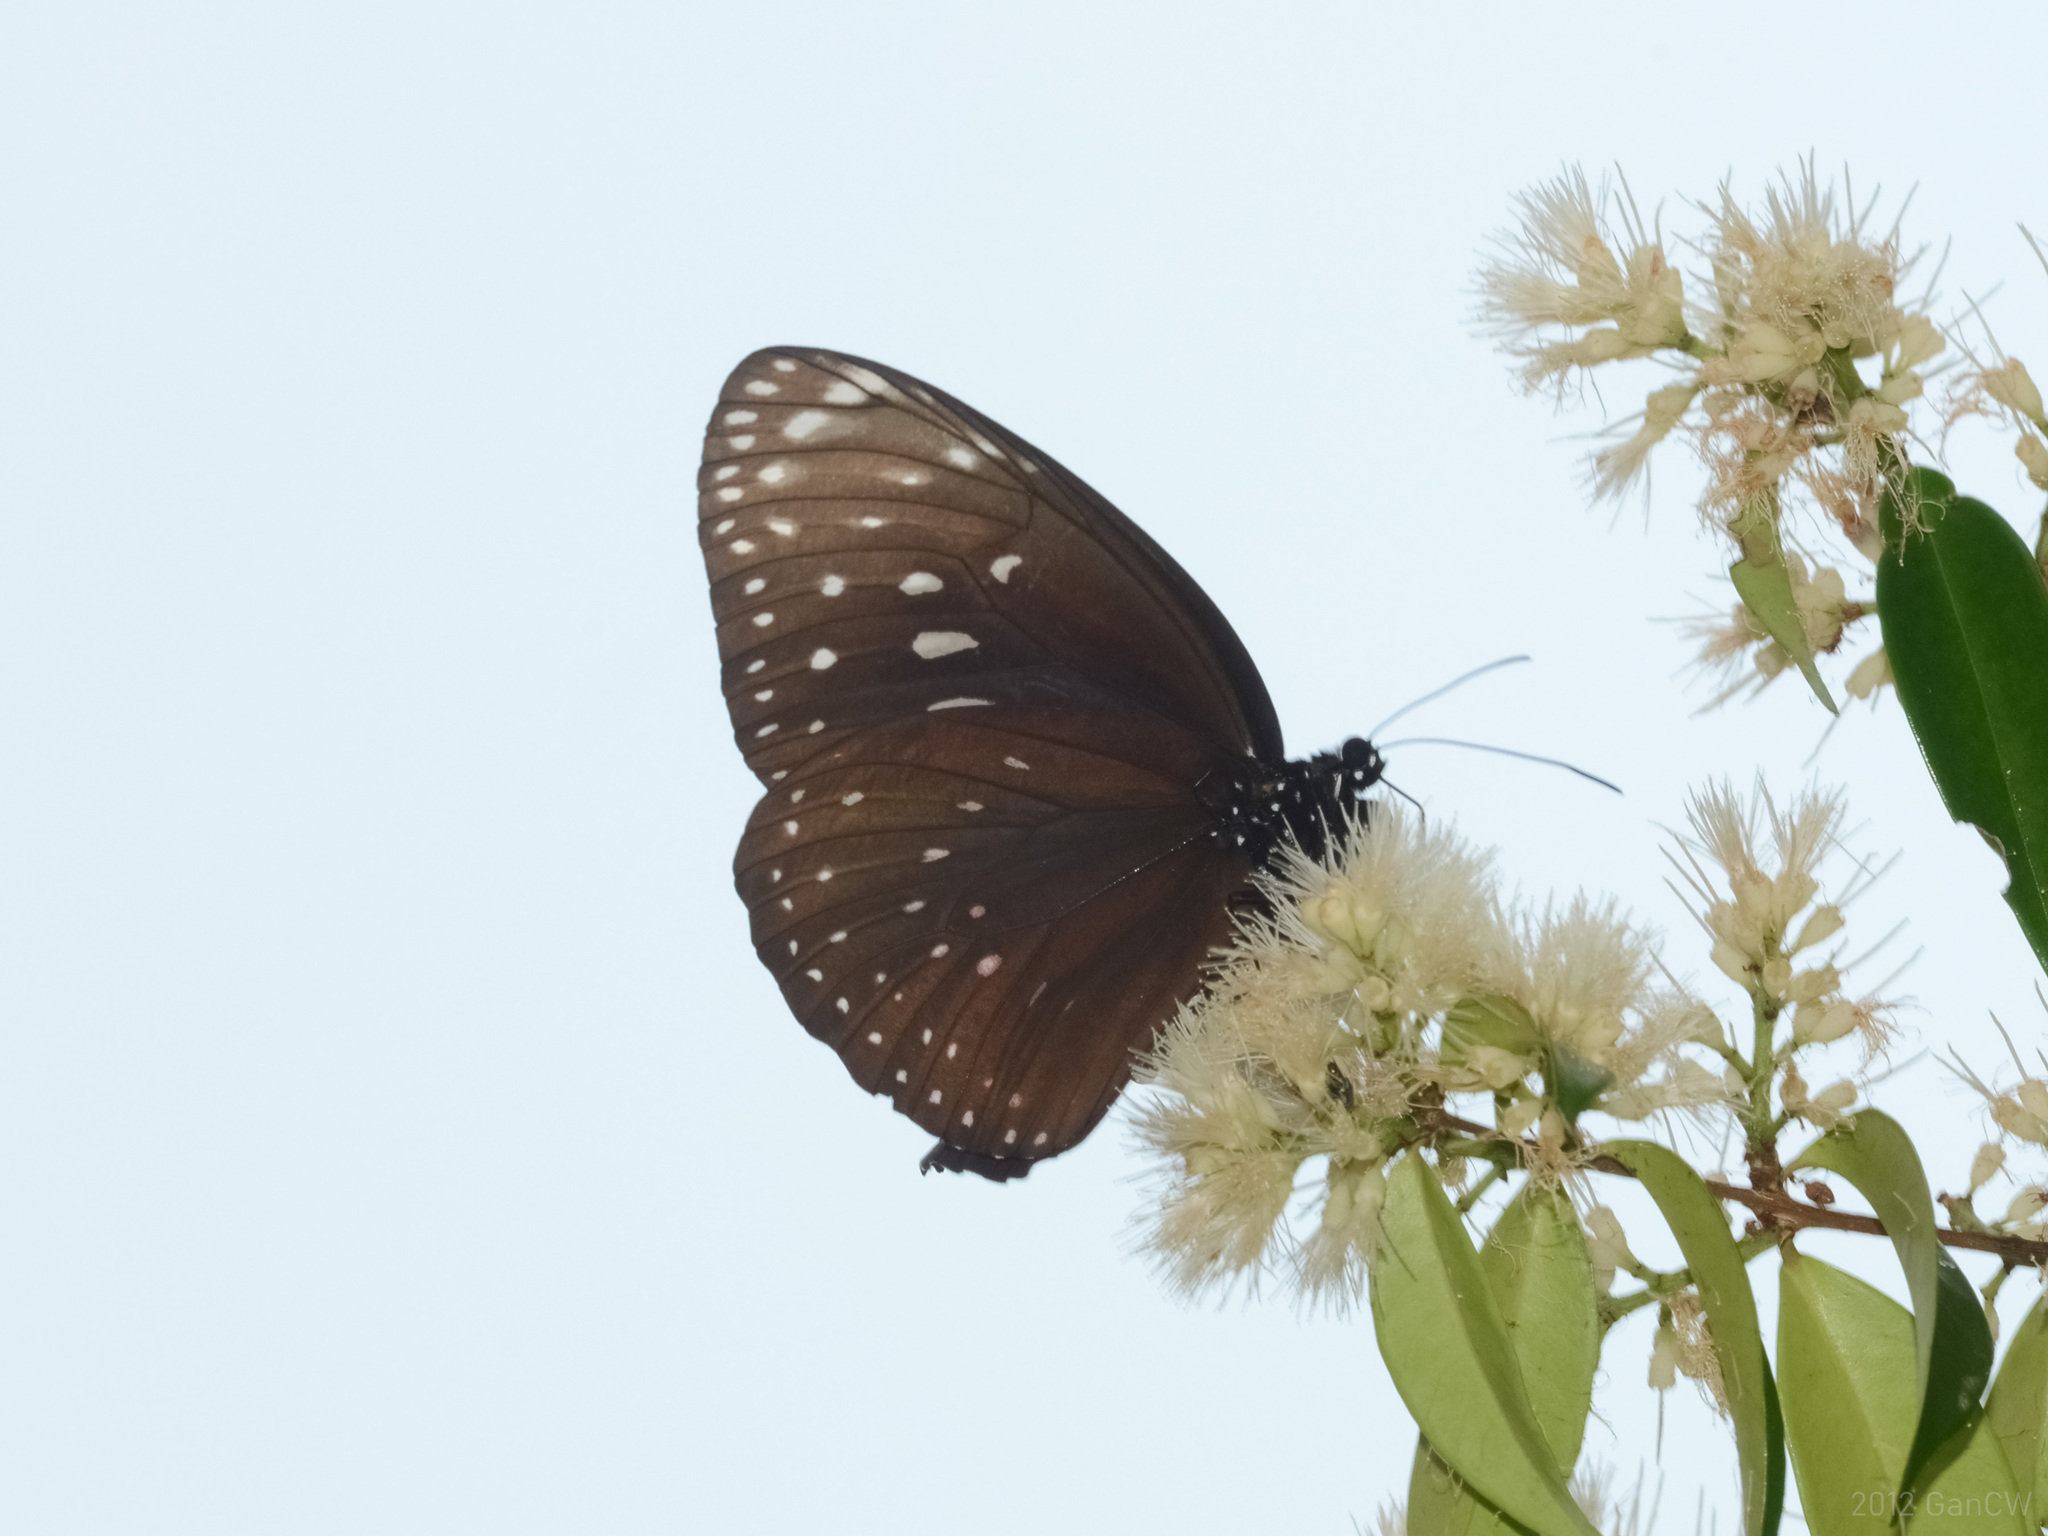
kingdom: Animalia
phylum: Arthropoda
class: Insecta
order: Lepidoptera
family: Nymphalidae
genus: Euploea
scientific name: Euploea phaenareta
